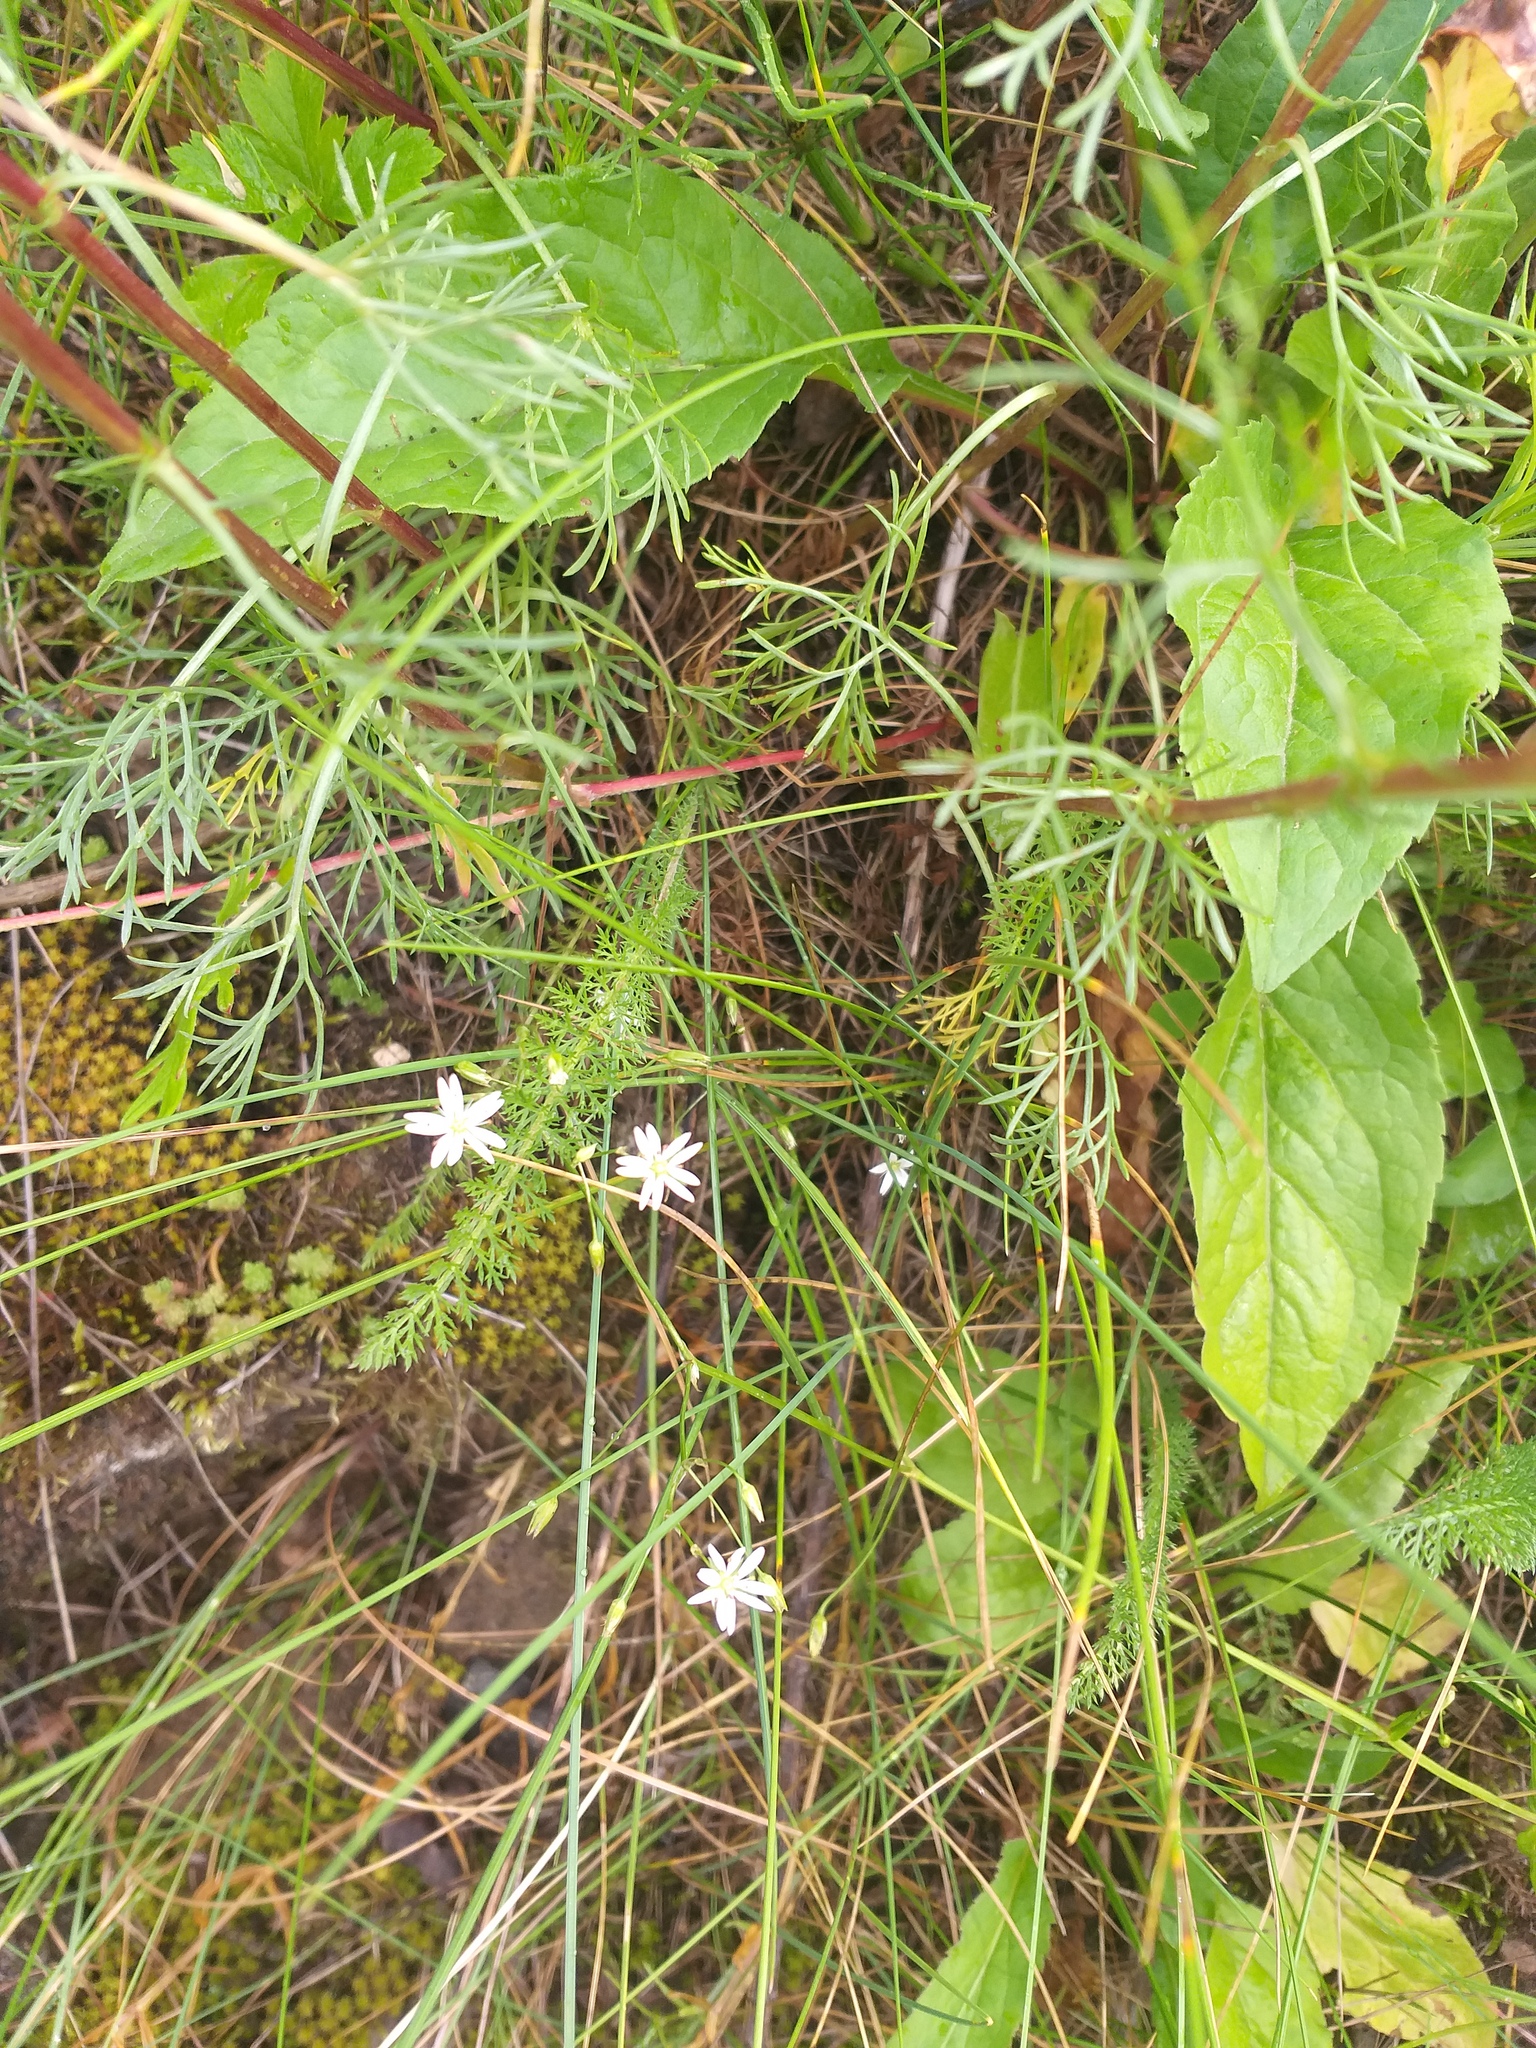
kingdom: Plantae
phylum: Tracheophyta
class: Magnoliopsida
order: Caryophyllales
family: Caryophyllaceae
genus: Stellaria
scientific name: Stellaria graminea
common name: Grass-like starwort
